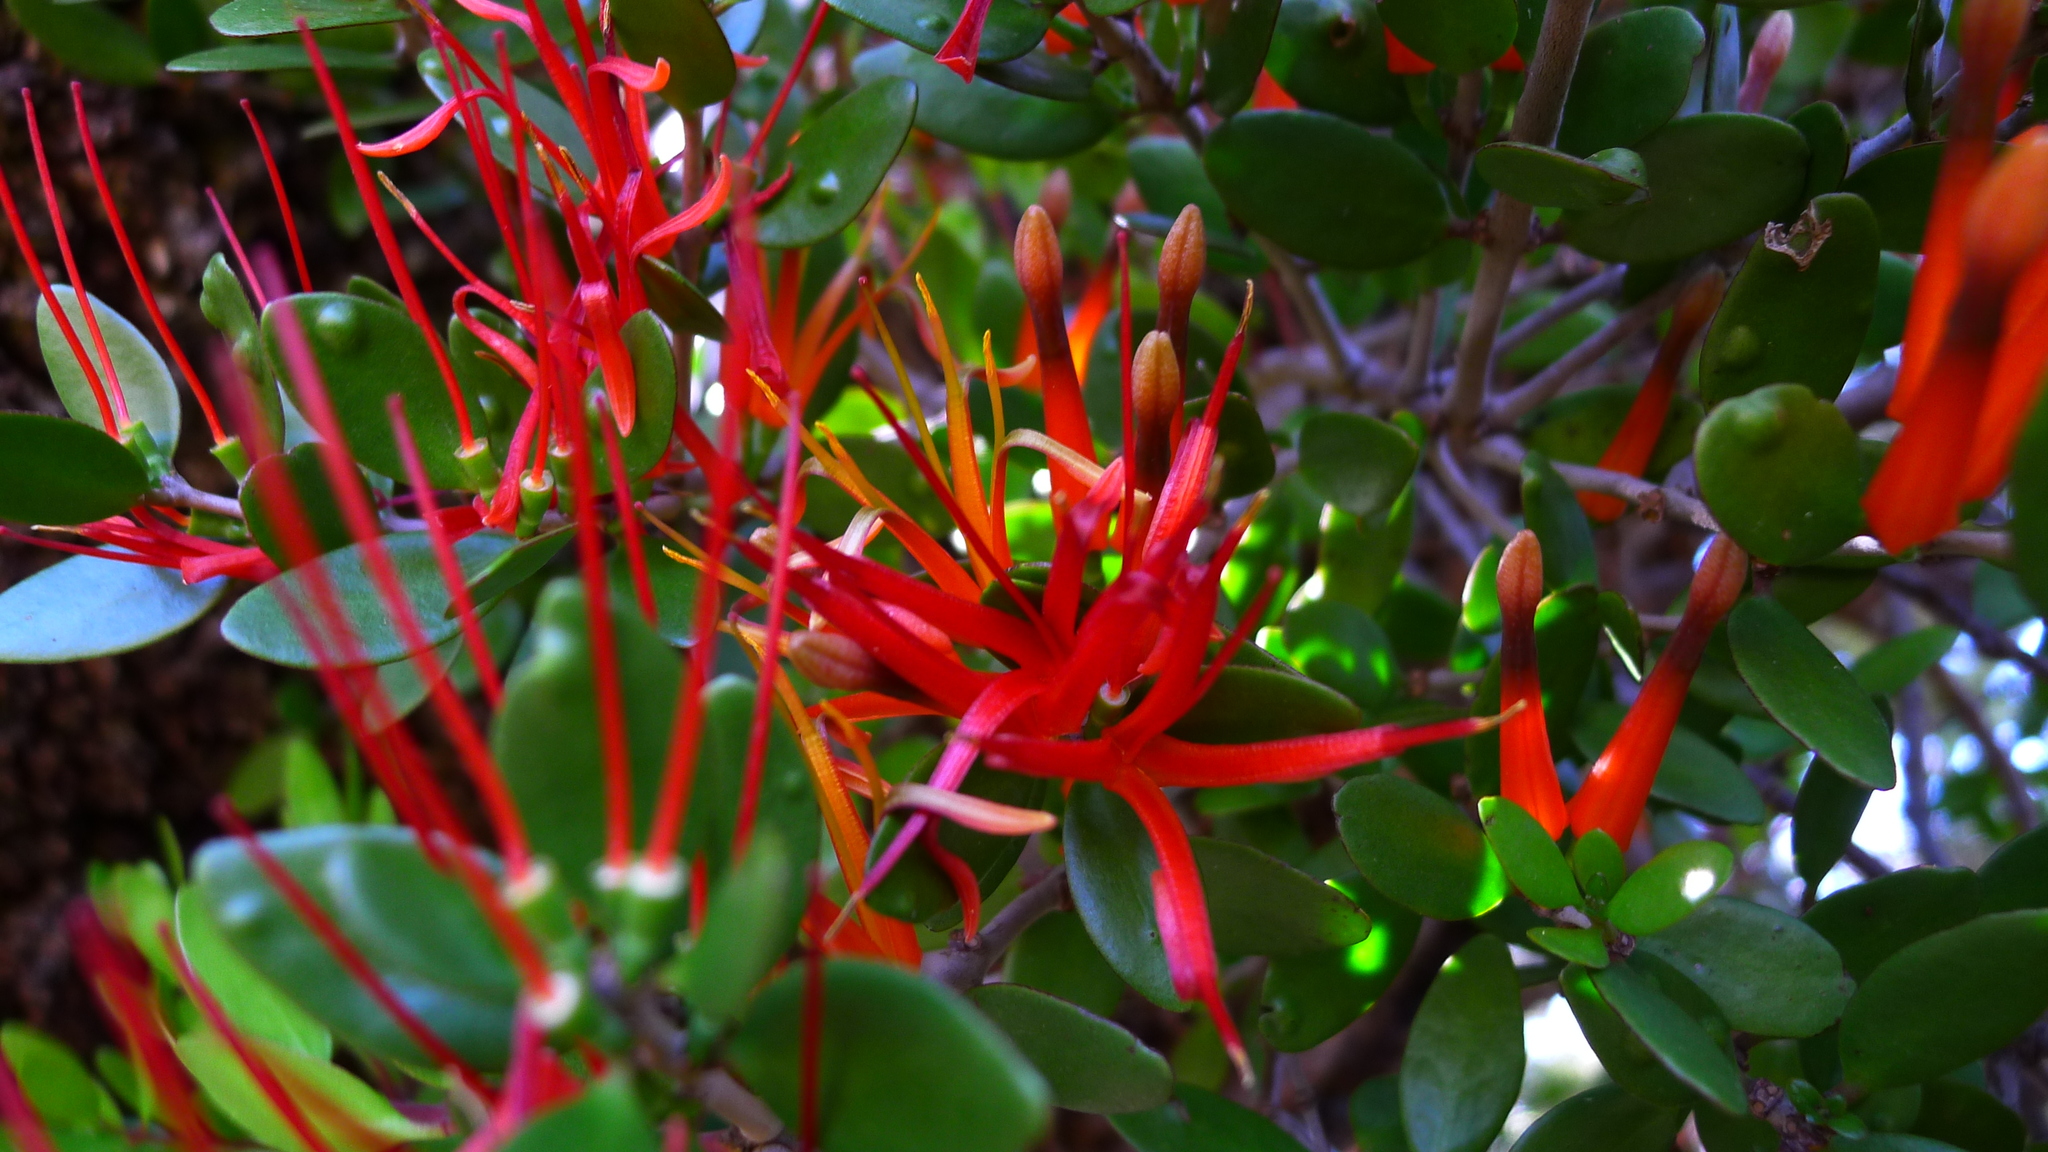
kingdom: Plantae
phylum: Tracheophyta
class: Magnoliopsida
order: Santalales
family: Loranthaceae
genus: Peraxilla
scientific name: Peraxilla tetrapetala
